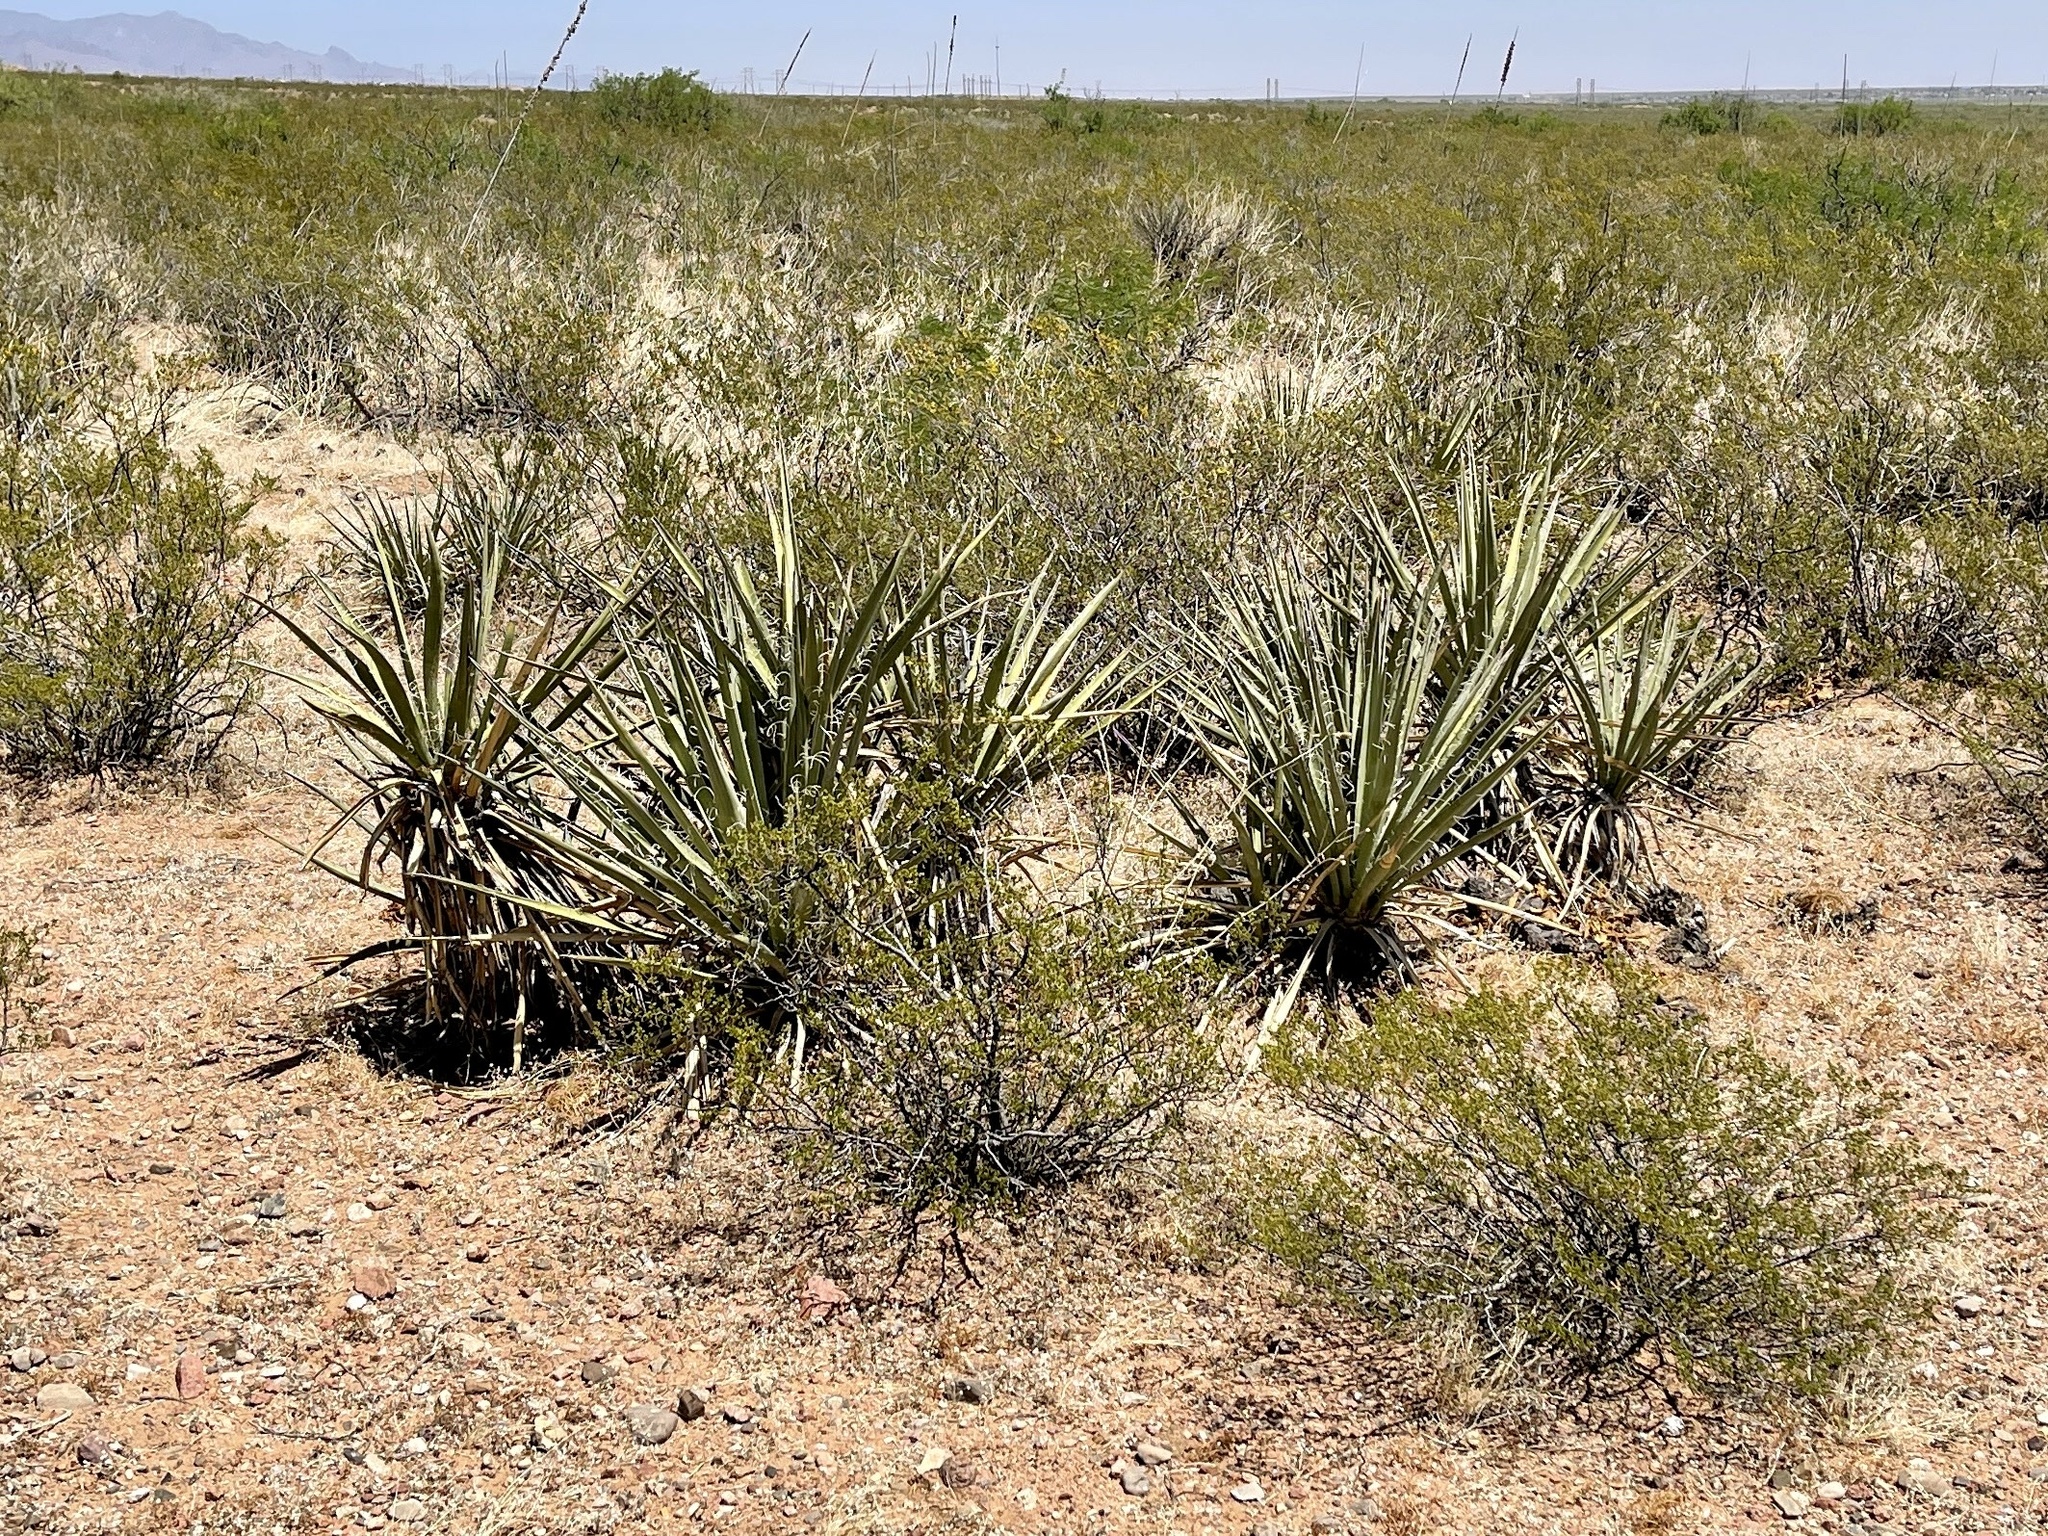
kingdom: Plantae
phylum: Tracheophyta
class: Liliopsida
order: Asparagales
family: Asparagaceae
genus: Yucca
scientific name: Yucca baccata
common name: Banana yucca
